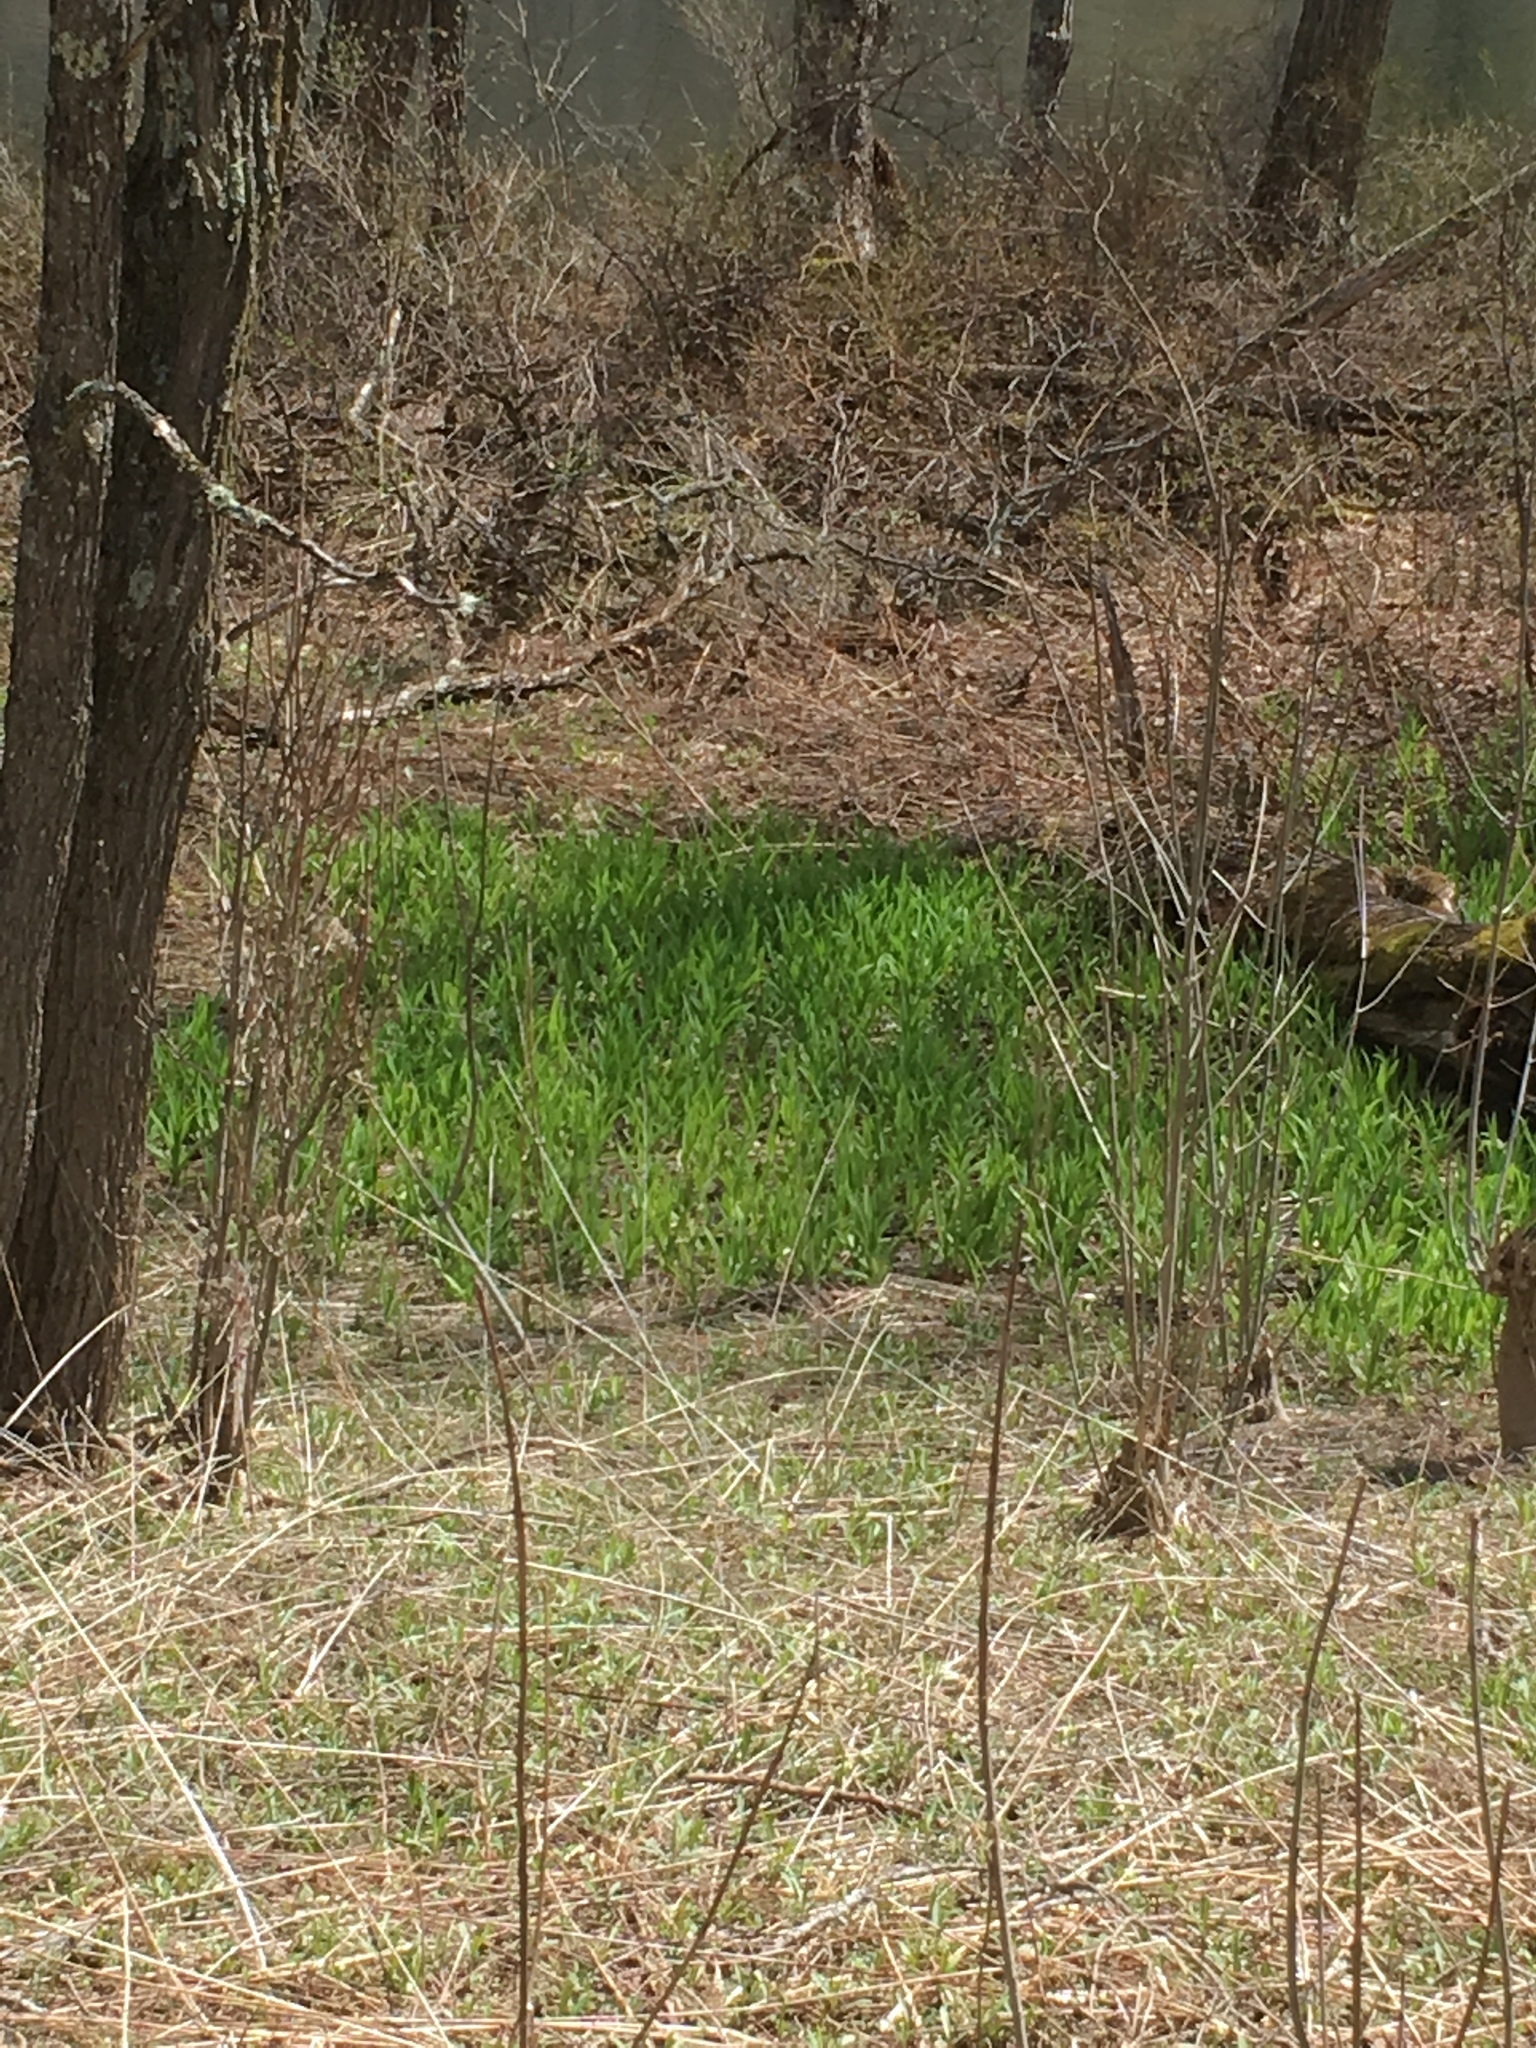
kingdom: Plantae
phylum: Tracheophyta
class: Liliopsida
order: Asparagales
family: Asphodelaceae
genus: Hemerocallis
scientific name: Hemerocallis fulva
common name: Orange day-lily
